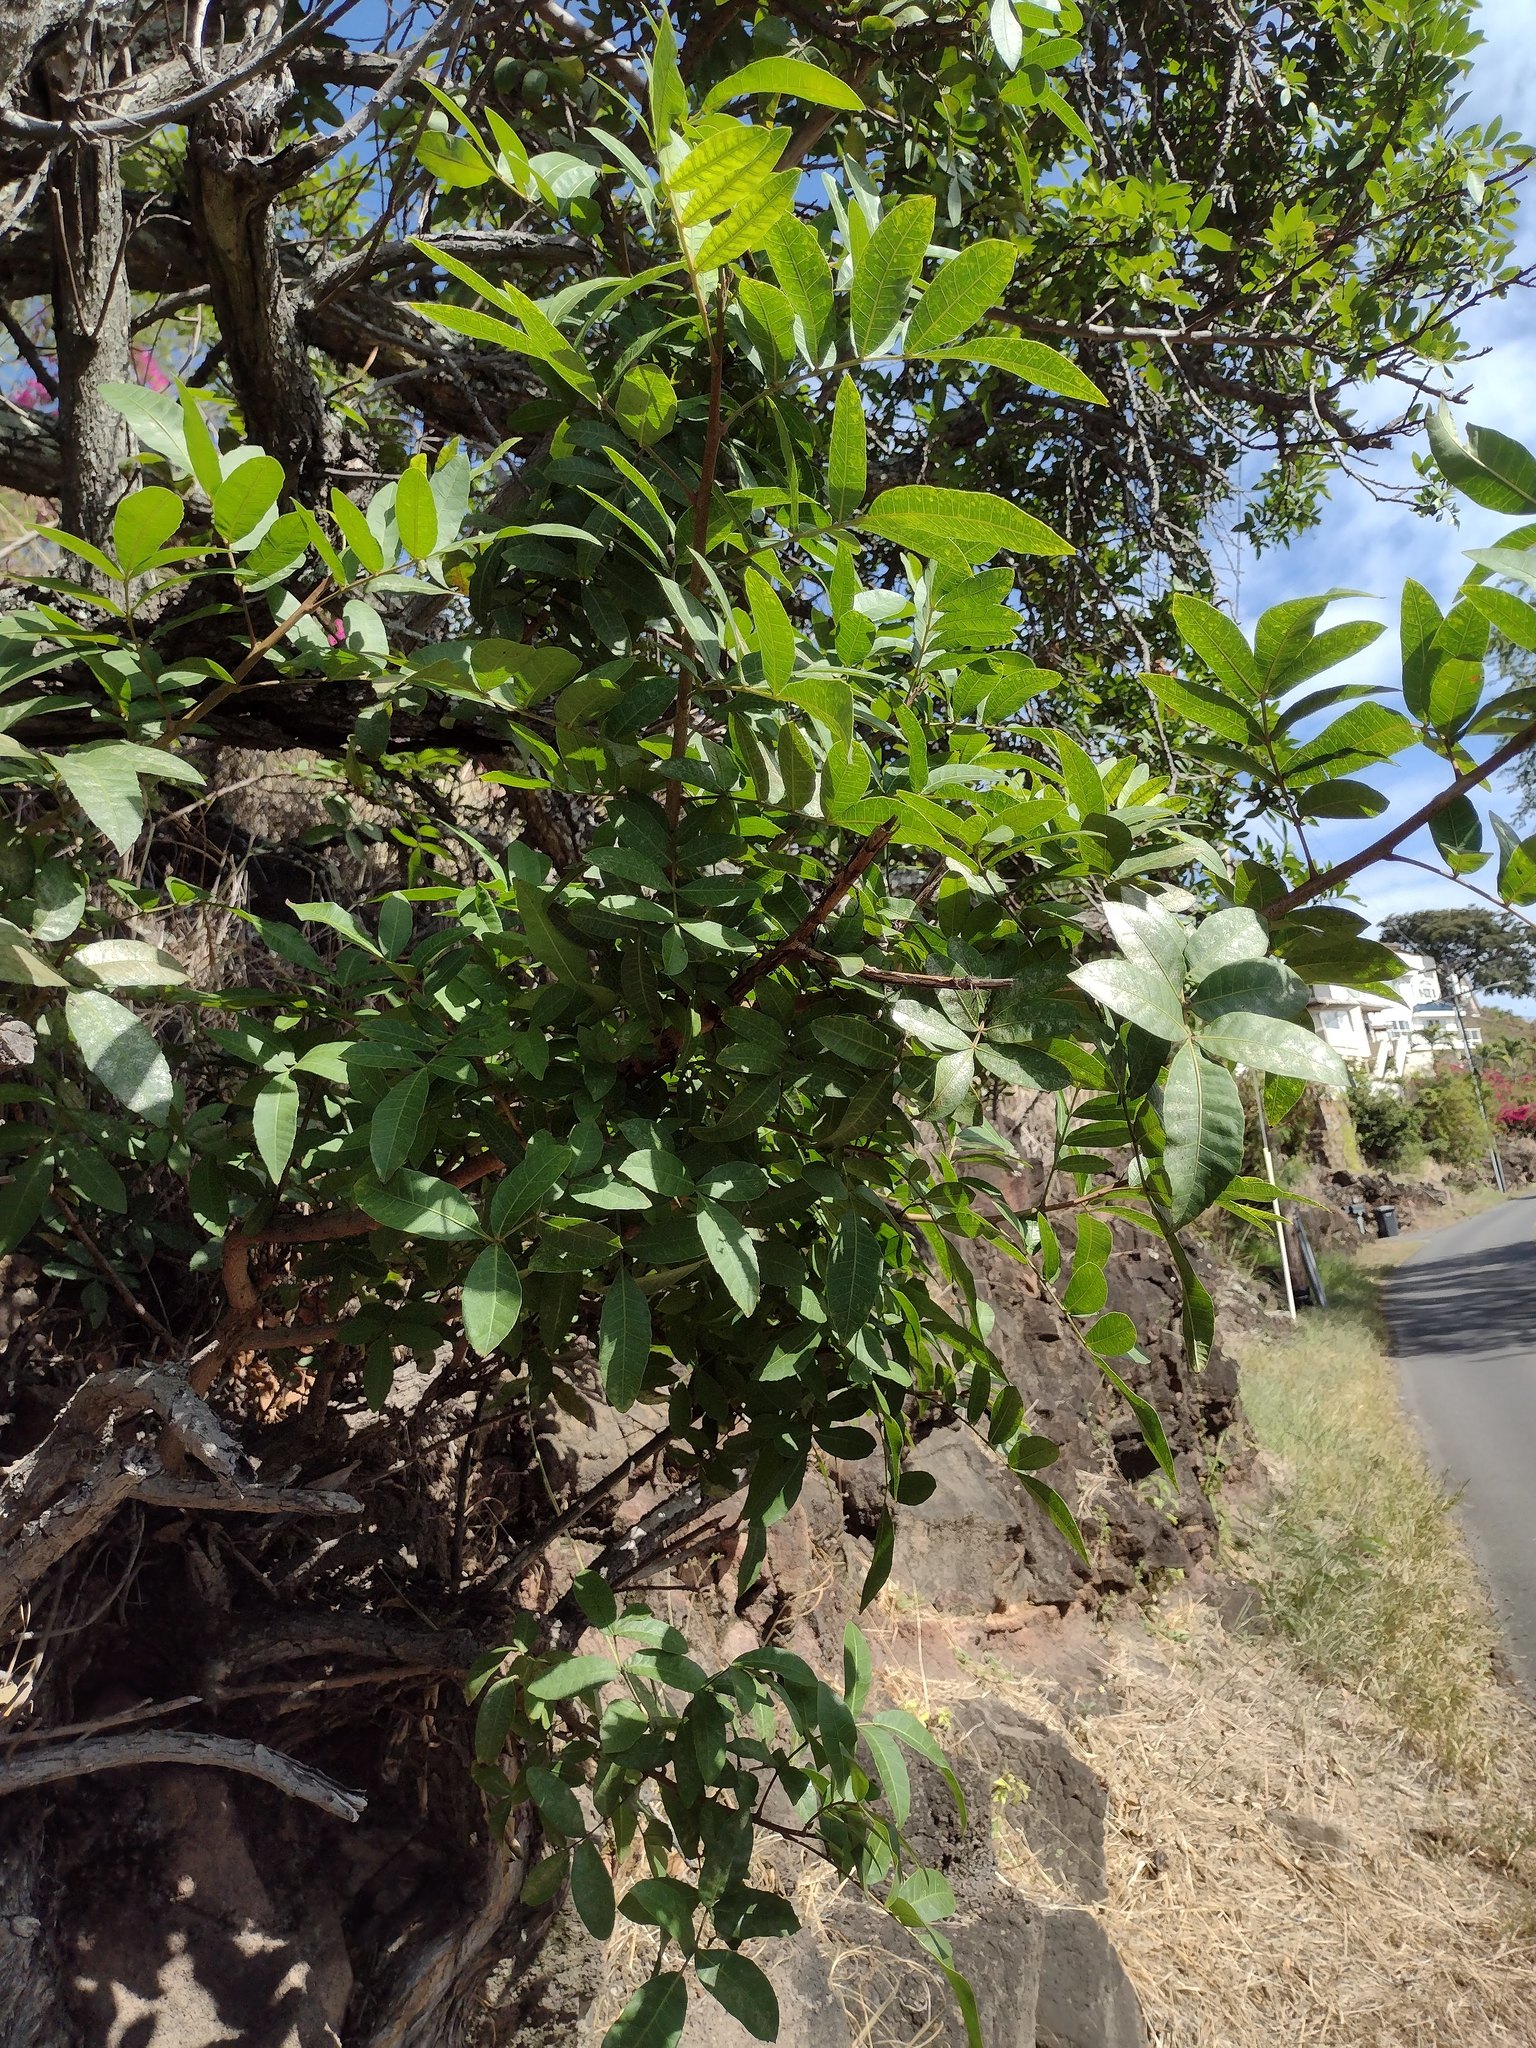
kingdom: Plantae
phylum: Tracheophyta
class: Magnoliopsida
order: Sapindales
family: Anacardiaceae
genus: Schinus
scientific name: Schinus terebinthifolia
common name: Brazilian peppertree
